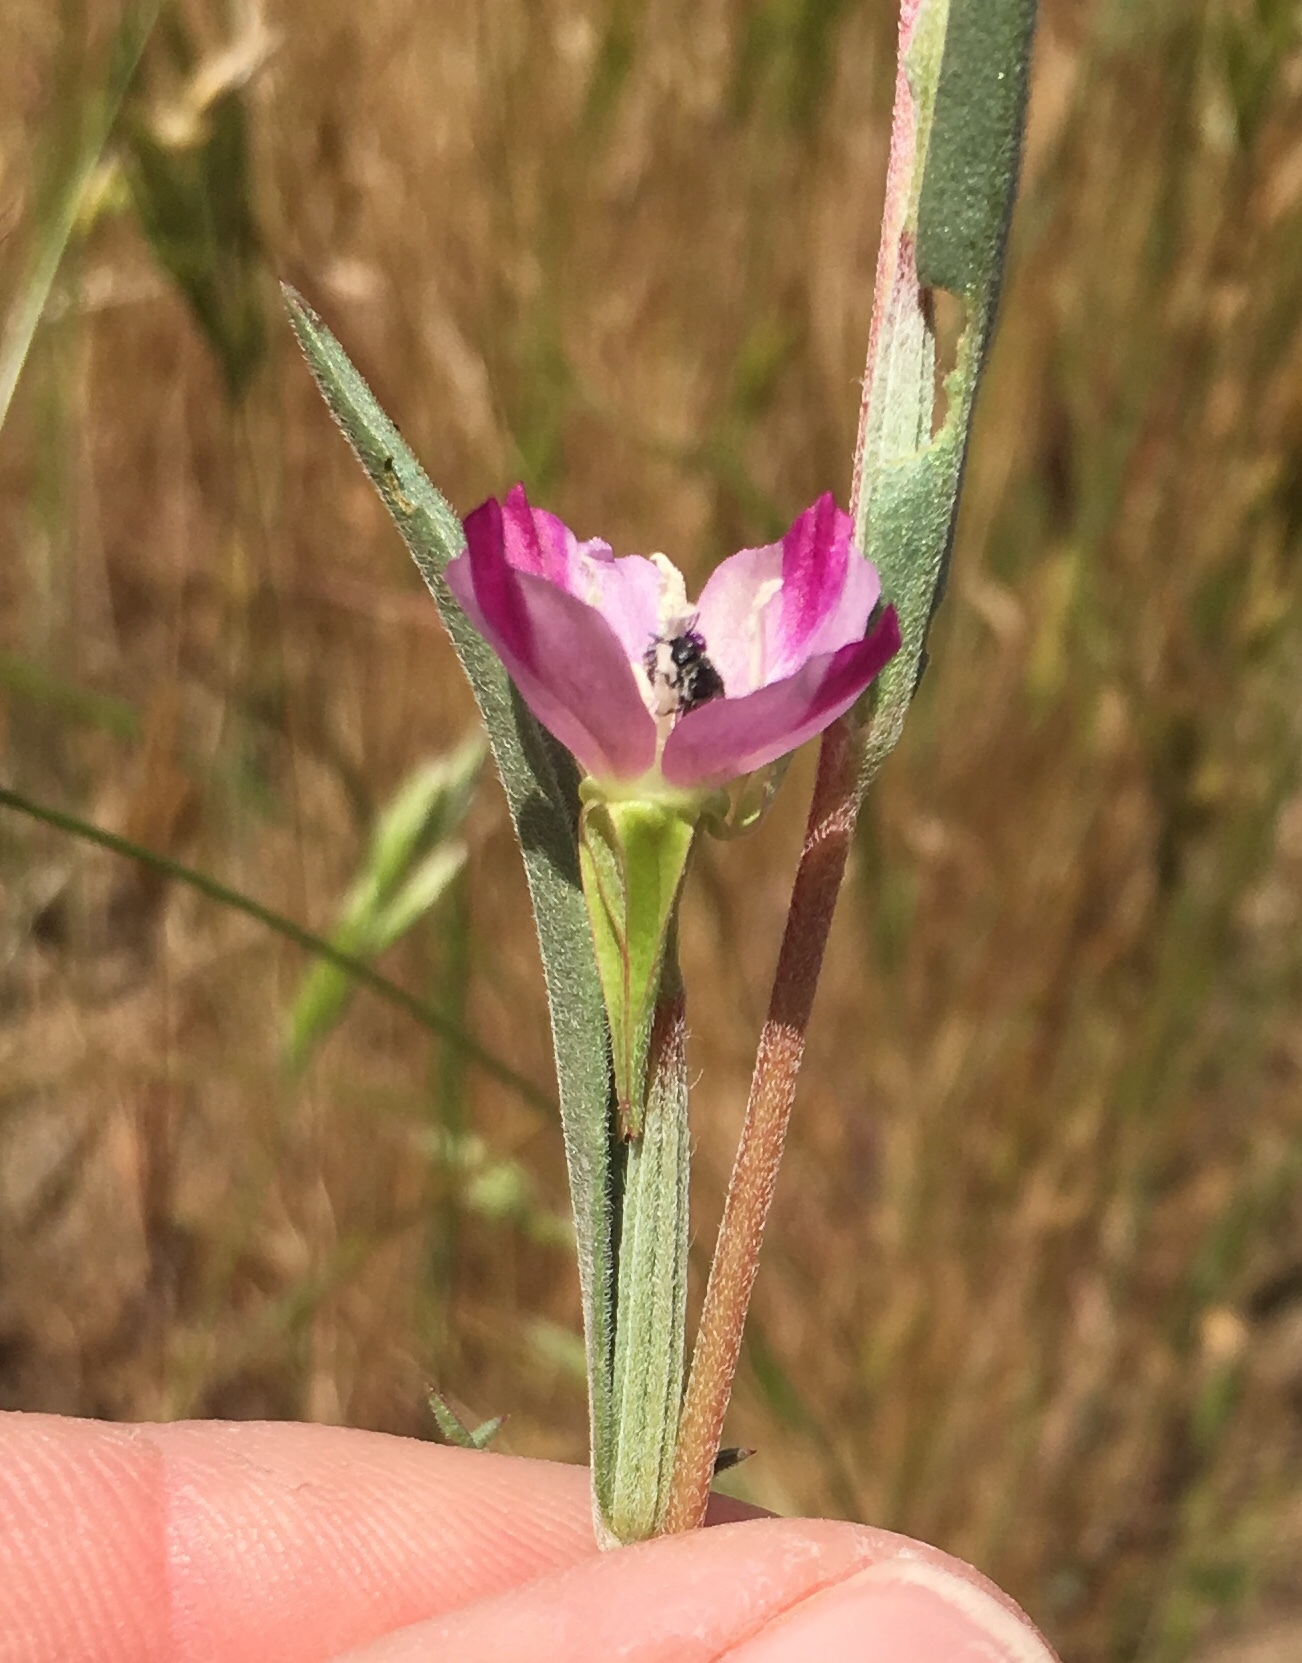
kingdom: Plantae
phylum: Tracheophyta
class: Magnoliopsida
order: Myrtales
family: Onagraceae
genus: Clarkia
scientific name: Clarkia purpurea
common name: Purple clarkia
